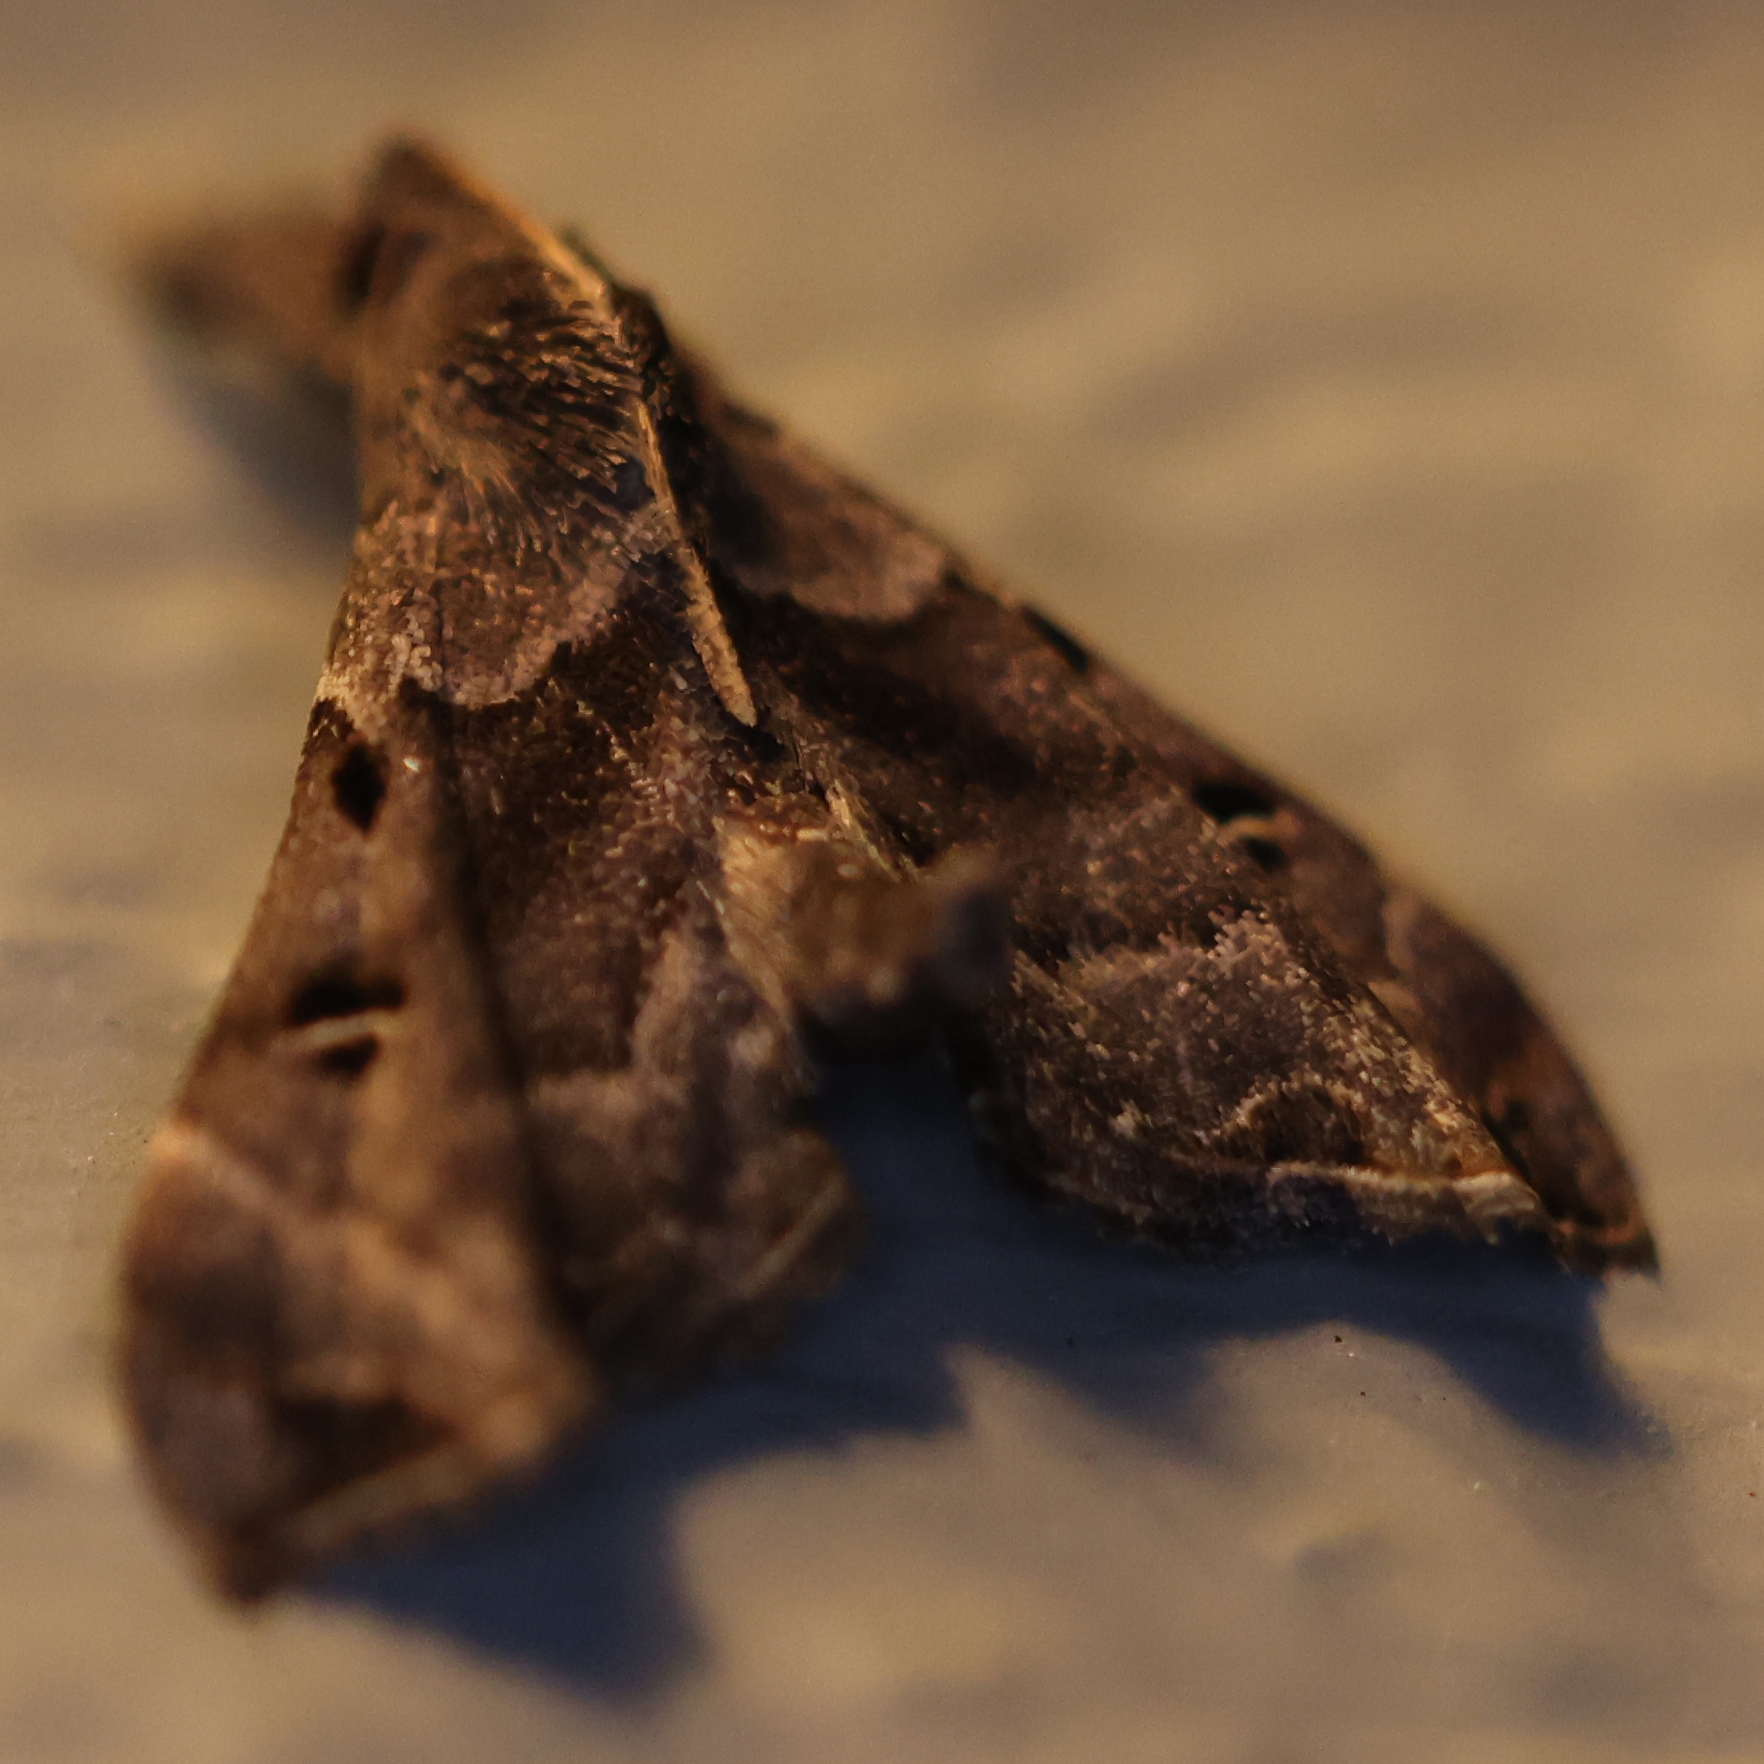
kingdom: Animalia
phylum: Arthropoda
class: Insecta
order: Lepidoptera
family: Erebidae
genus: Palthis
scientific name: Palthis asopialis
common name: Faint-spotted palthis moth
